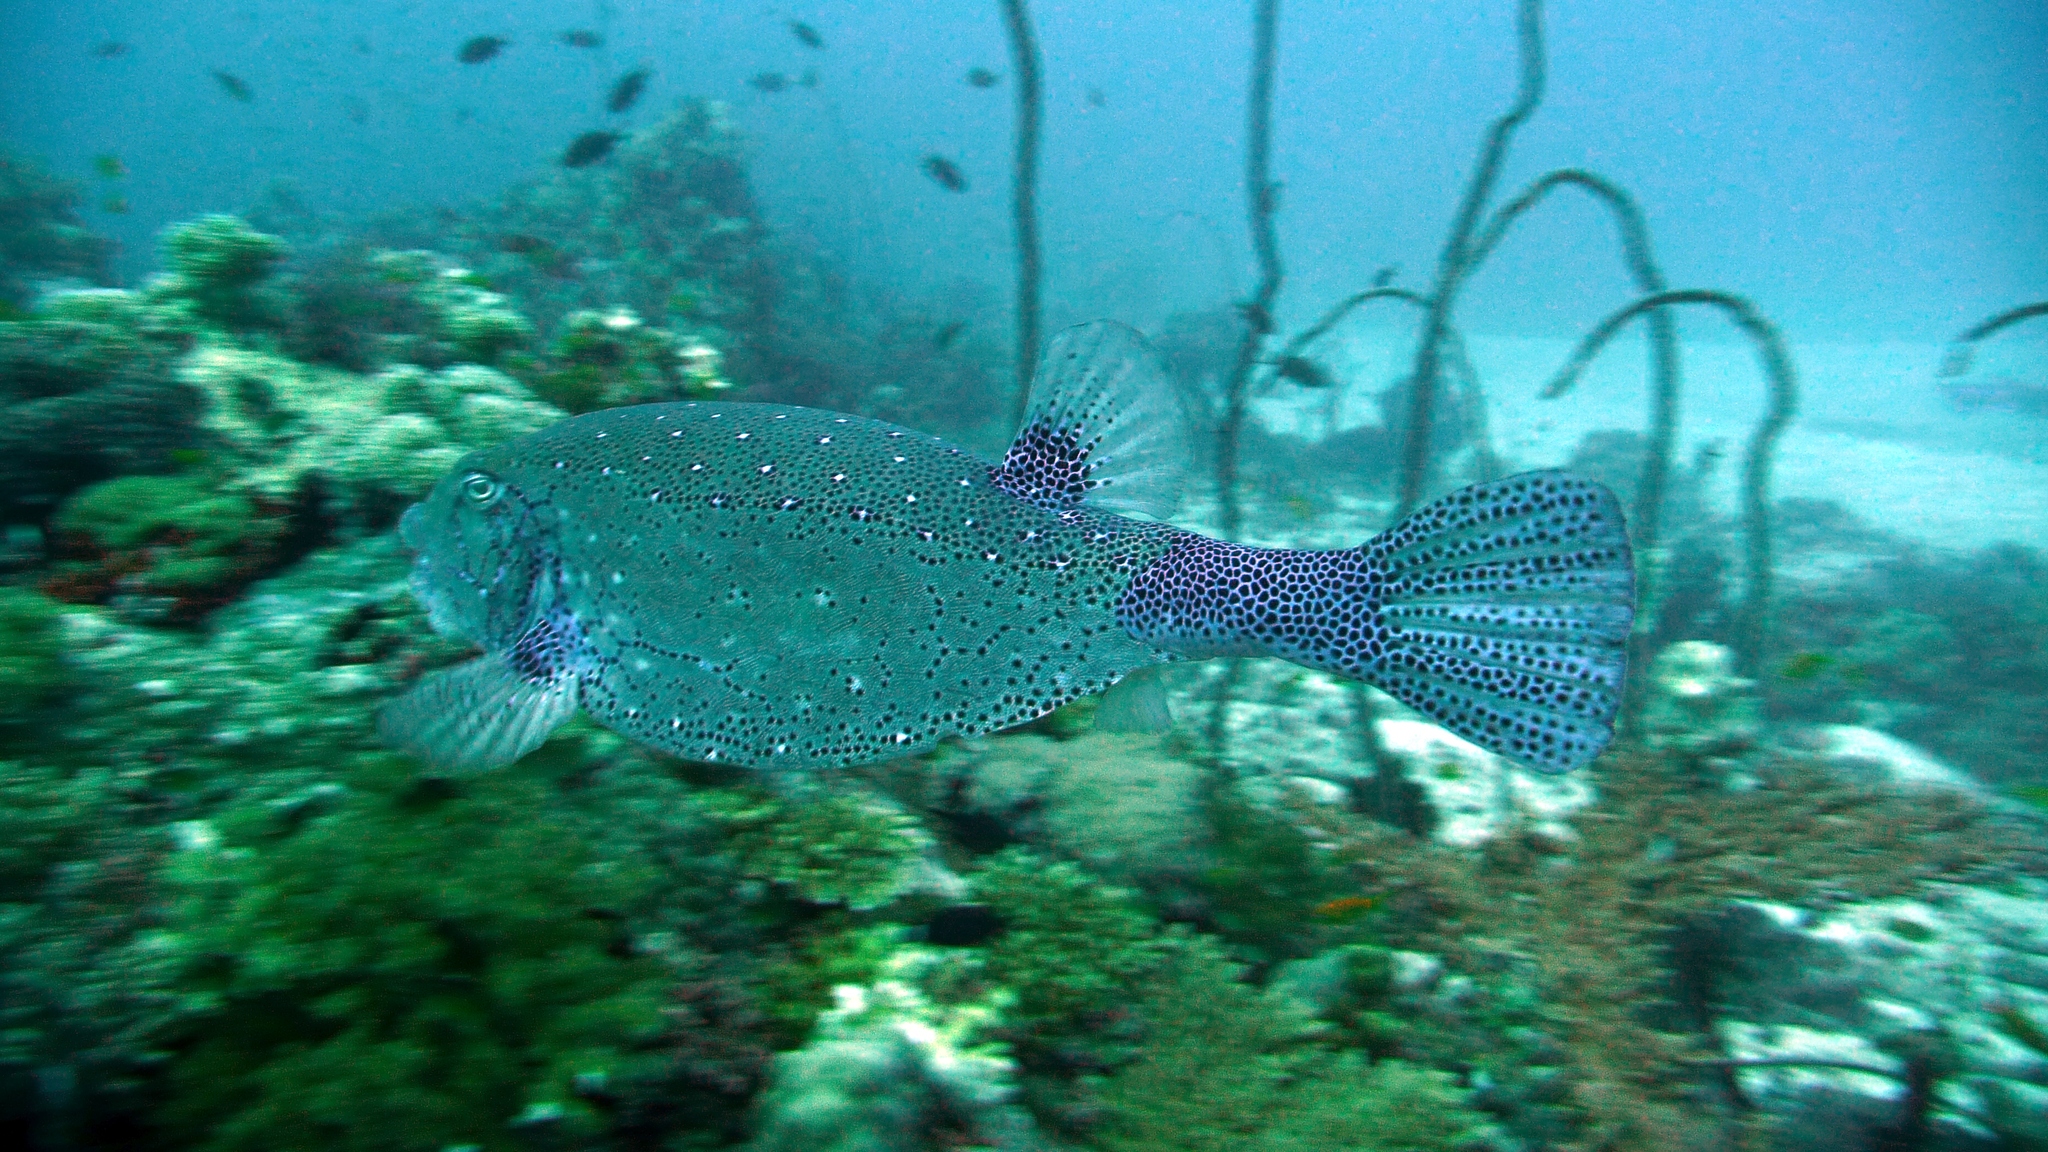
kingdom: Animalia
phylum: Chordata
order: Tetraodontiformes
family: Ostraciidae
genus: Ostracion
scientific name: Ostracion cubicus
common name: Cube trunkfish
